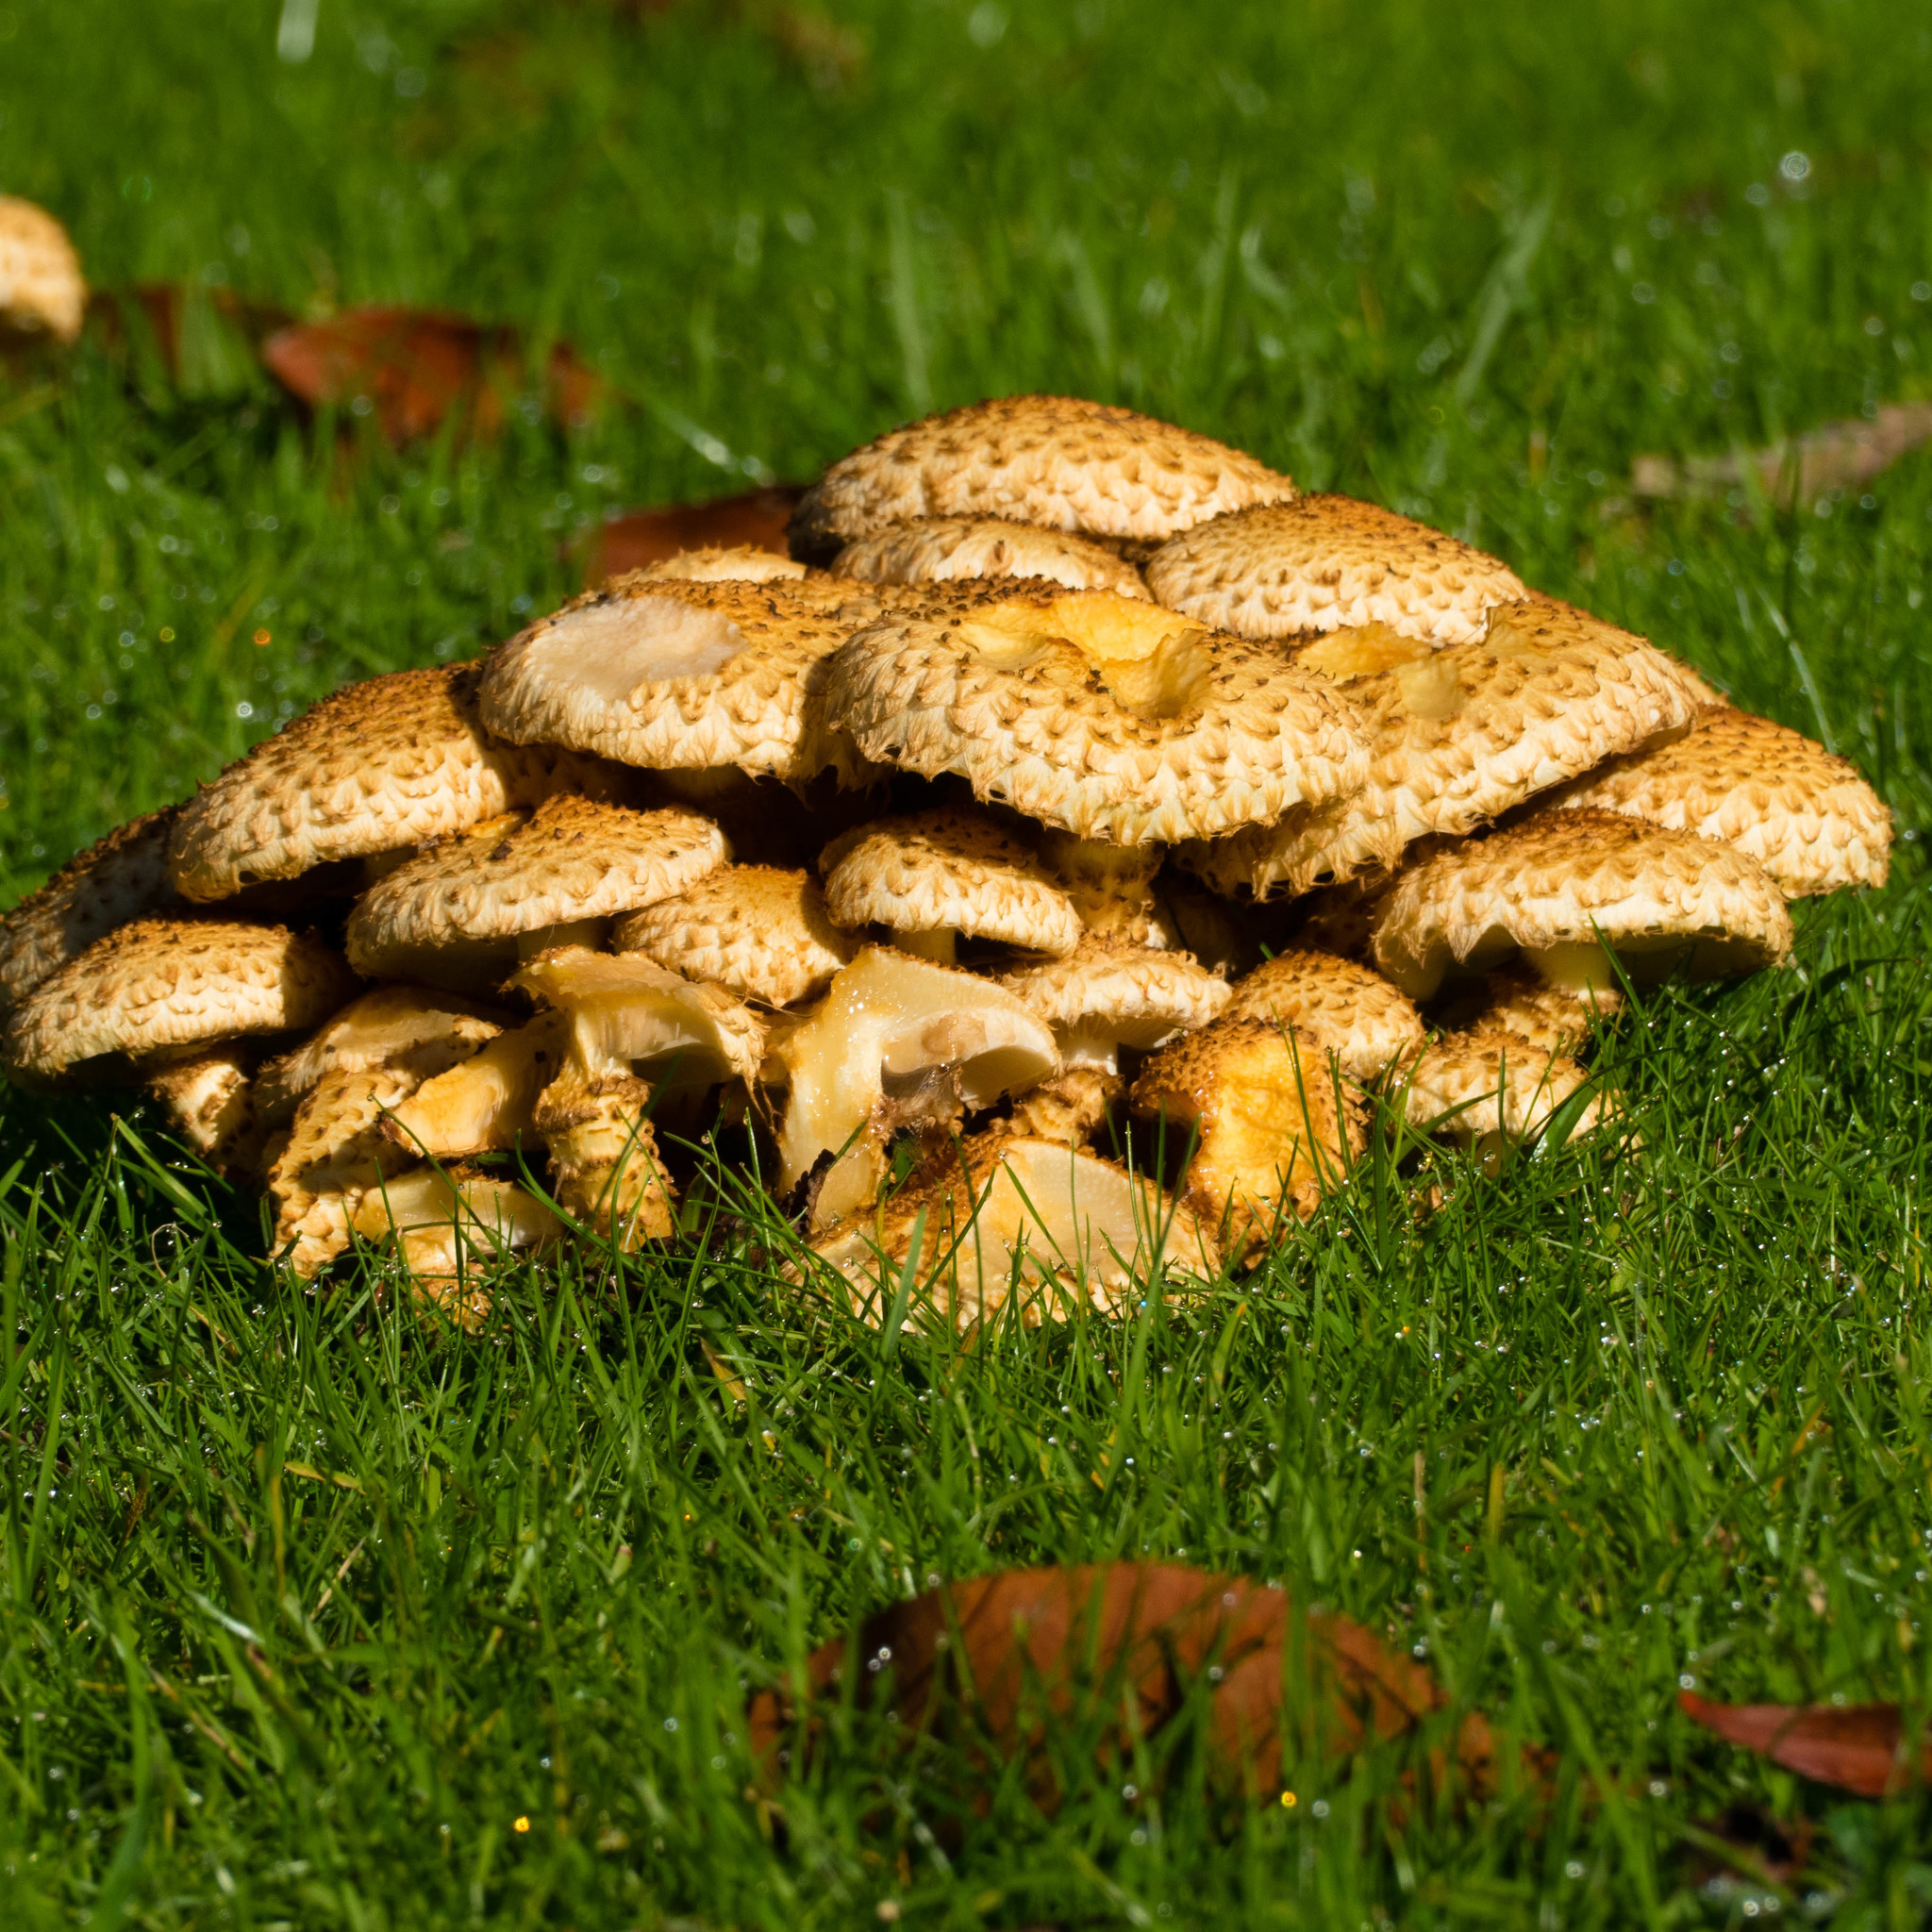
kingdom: Fungi
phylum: Basidiomycota
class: Agaricomycetes
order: Agaricales
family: Strophariaceae
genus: Pholiota
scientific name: Pholiota squarrosa
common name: Shaggy pholiota
